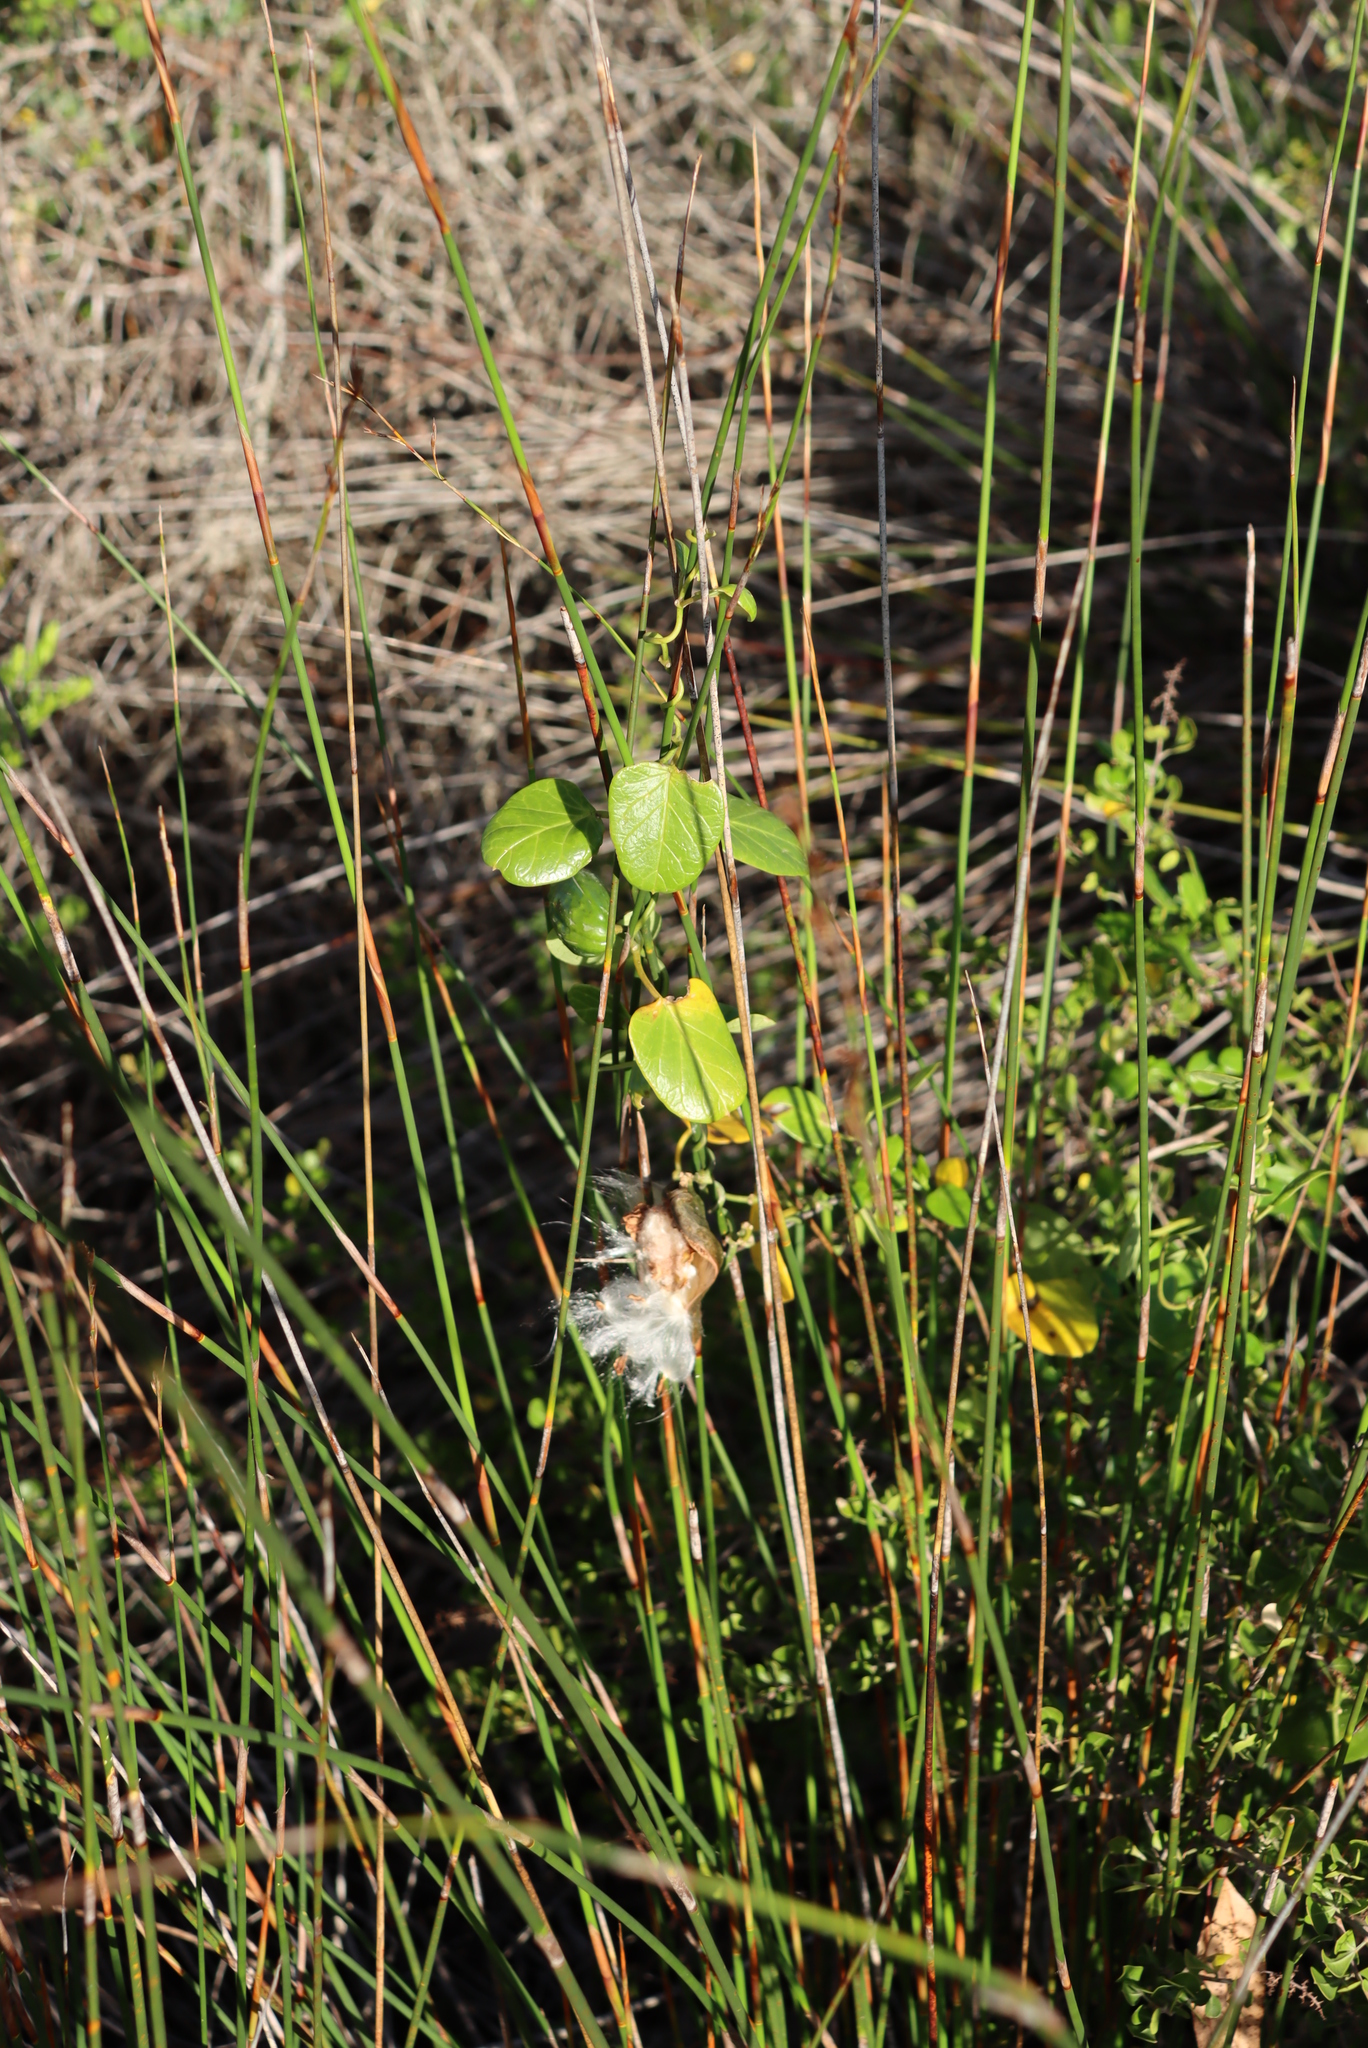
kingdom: Plantae
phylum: Tracheophyta
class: Magnoliopsida
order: Gentianales
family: Apocynaceae
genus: Cynanchum
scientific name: Cynanchum obtusifolium
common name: Monkey-rope
